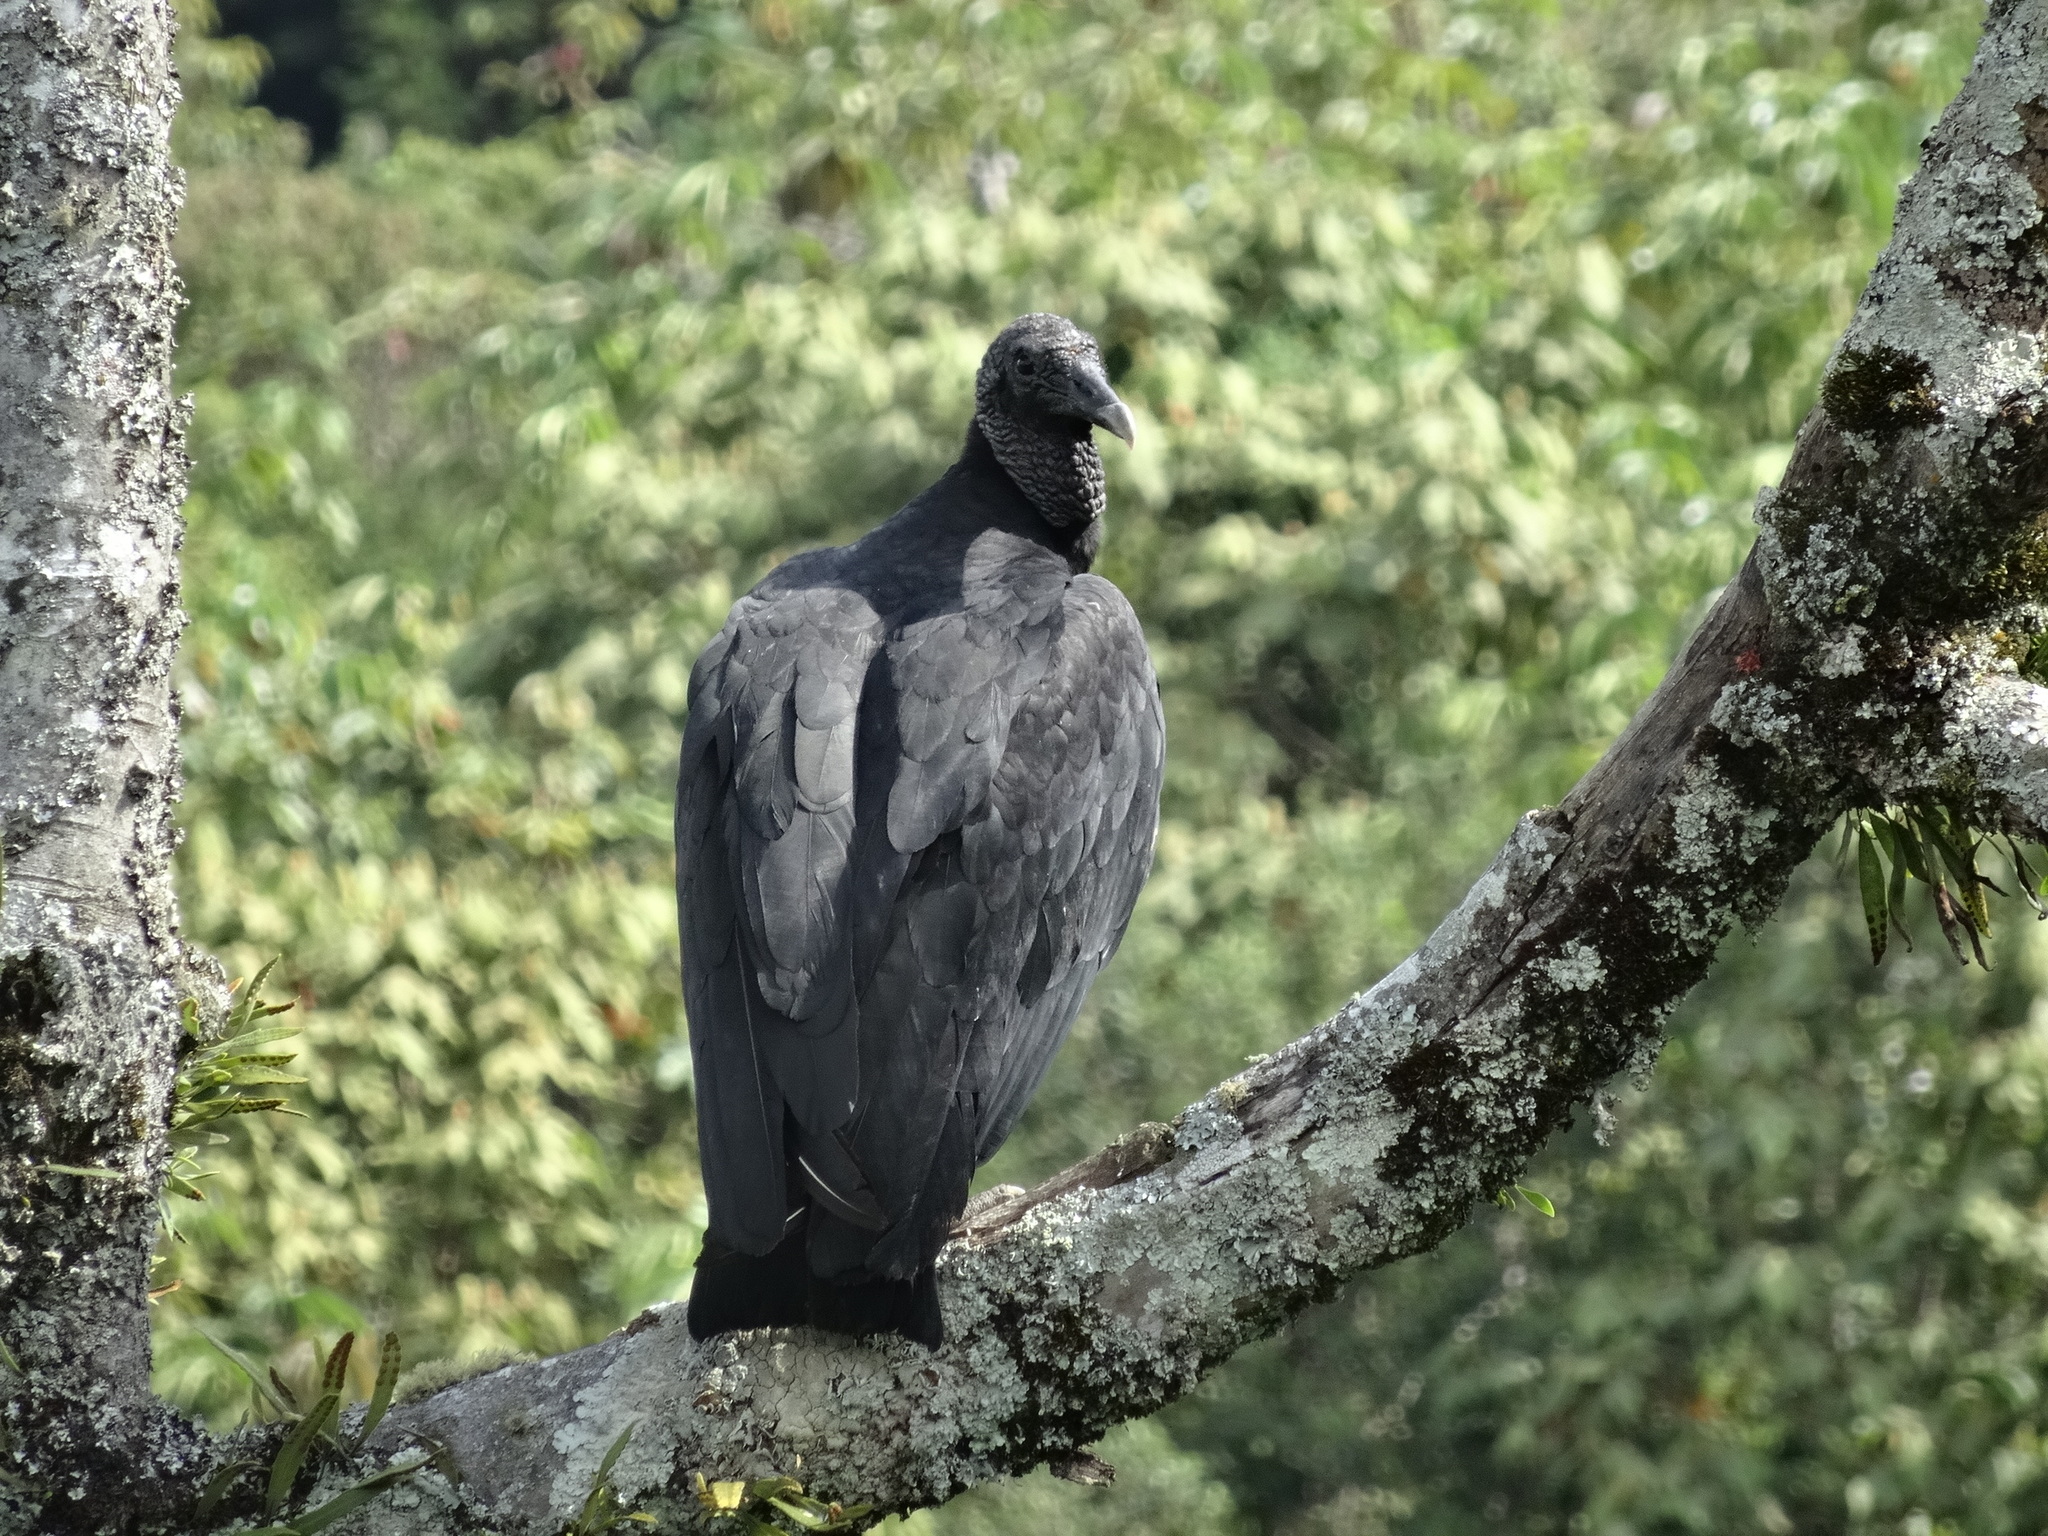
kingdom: Animalia
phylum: Chordata
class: Aves
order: Accipitriformes
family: Cathartidae
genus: Coragyps
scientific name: Coragyps atratus
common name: Black vulture
